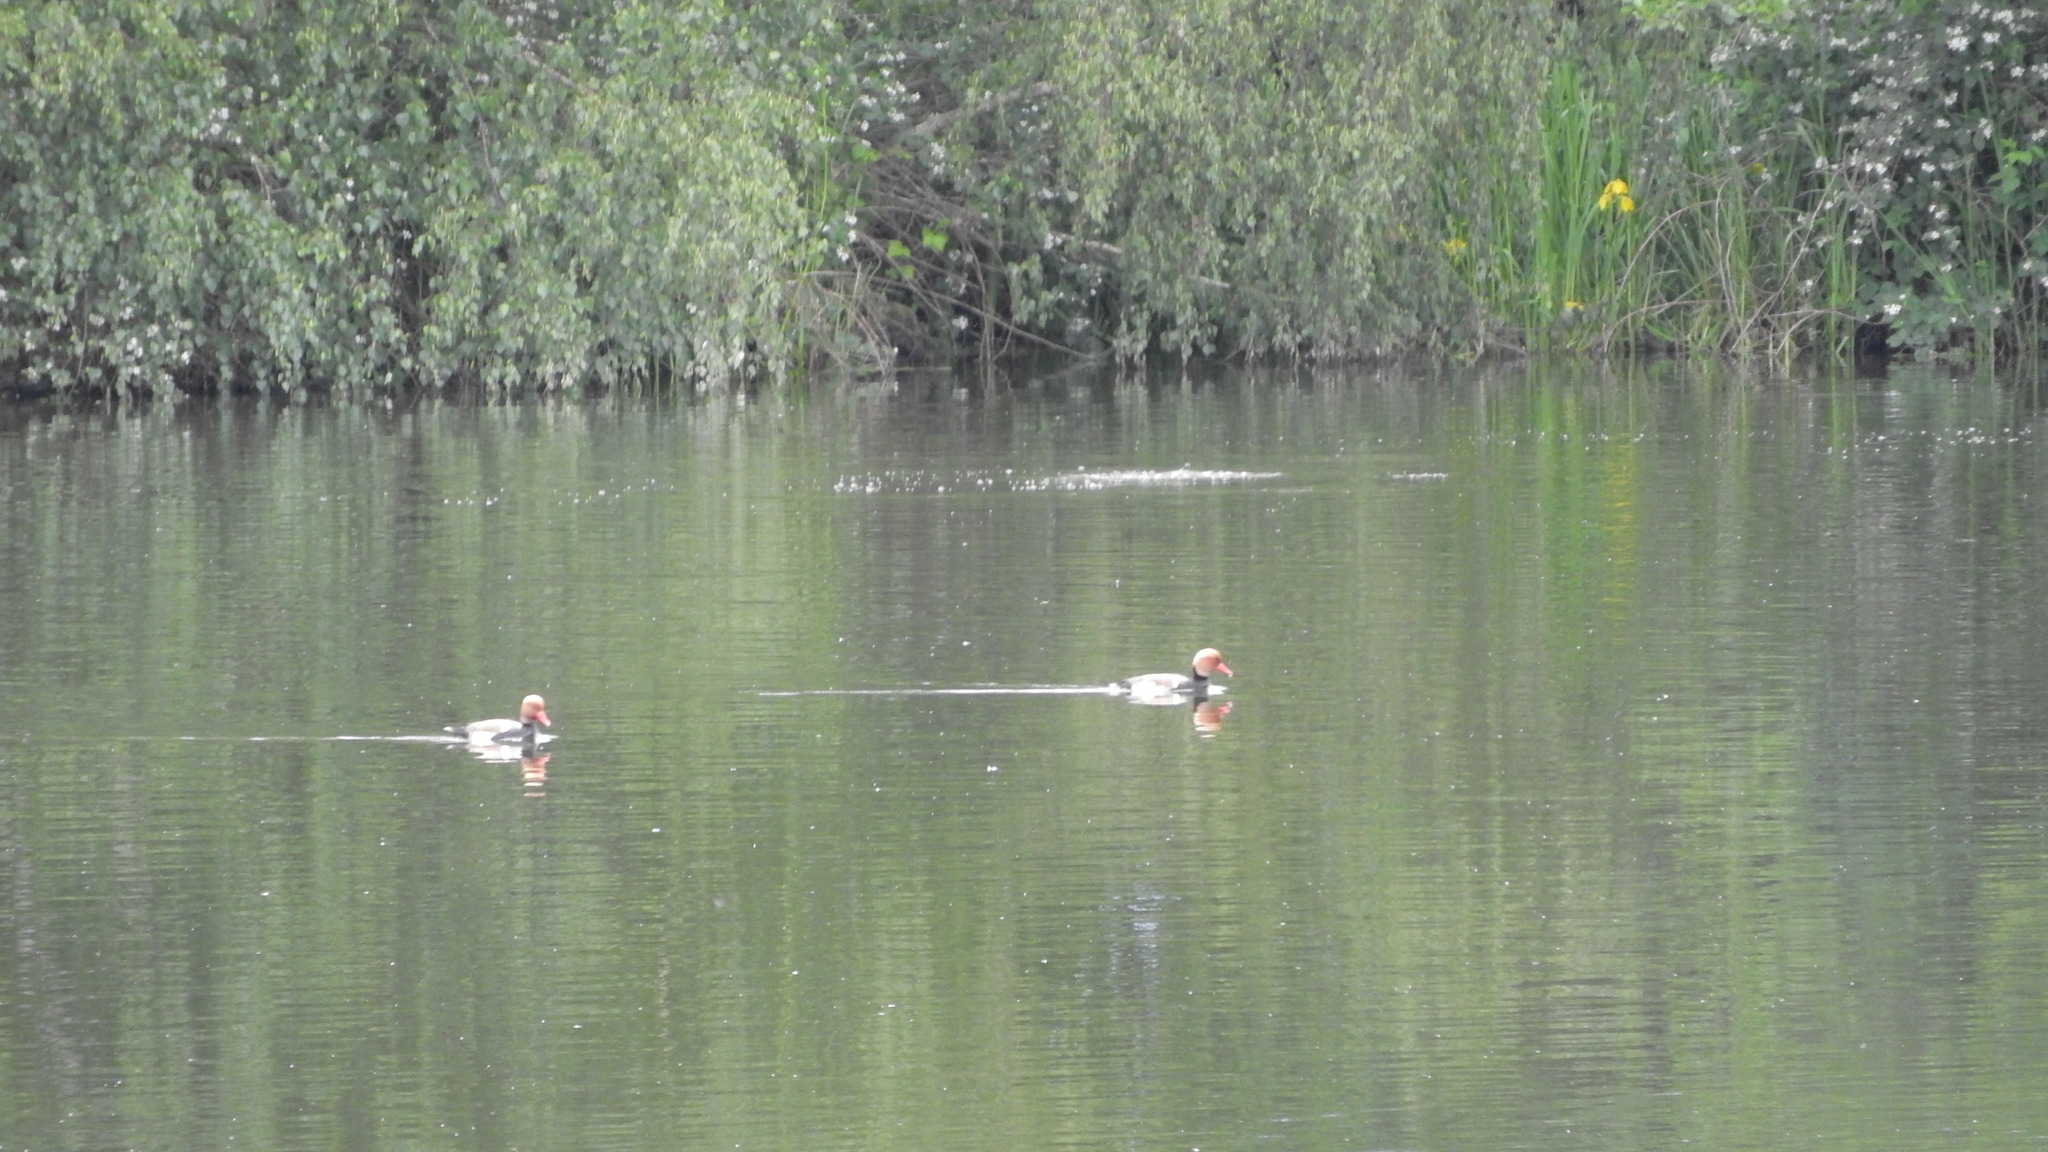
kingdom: Animalia
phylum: Chordata
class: Aves
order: Anseriformes
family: Anatidae
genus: Netta
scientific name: Netta rufina
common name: Red-crested pochard
